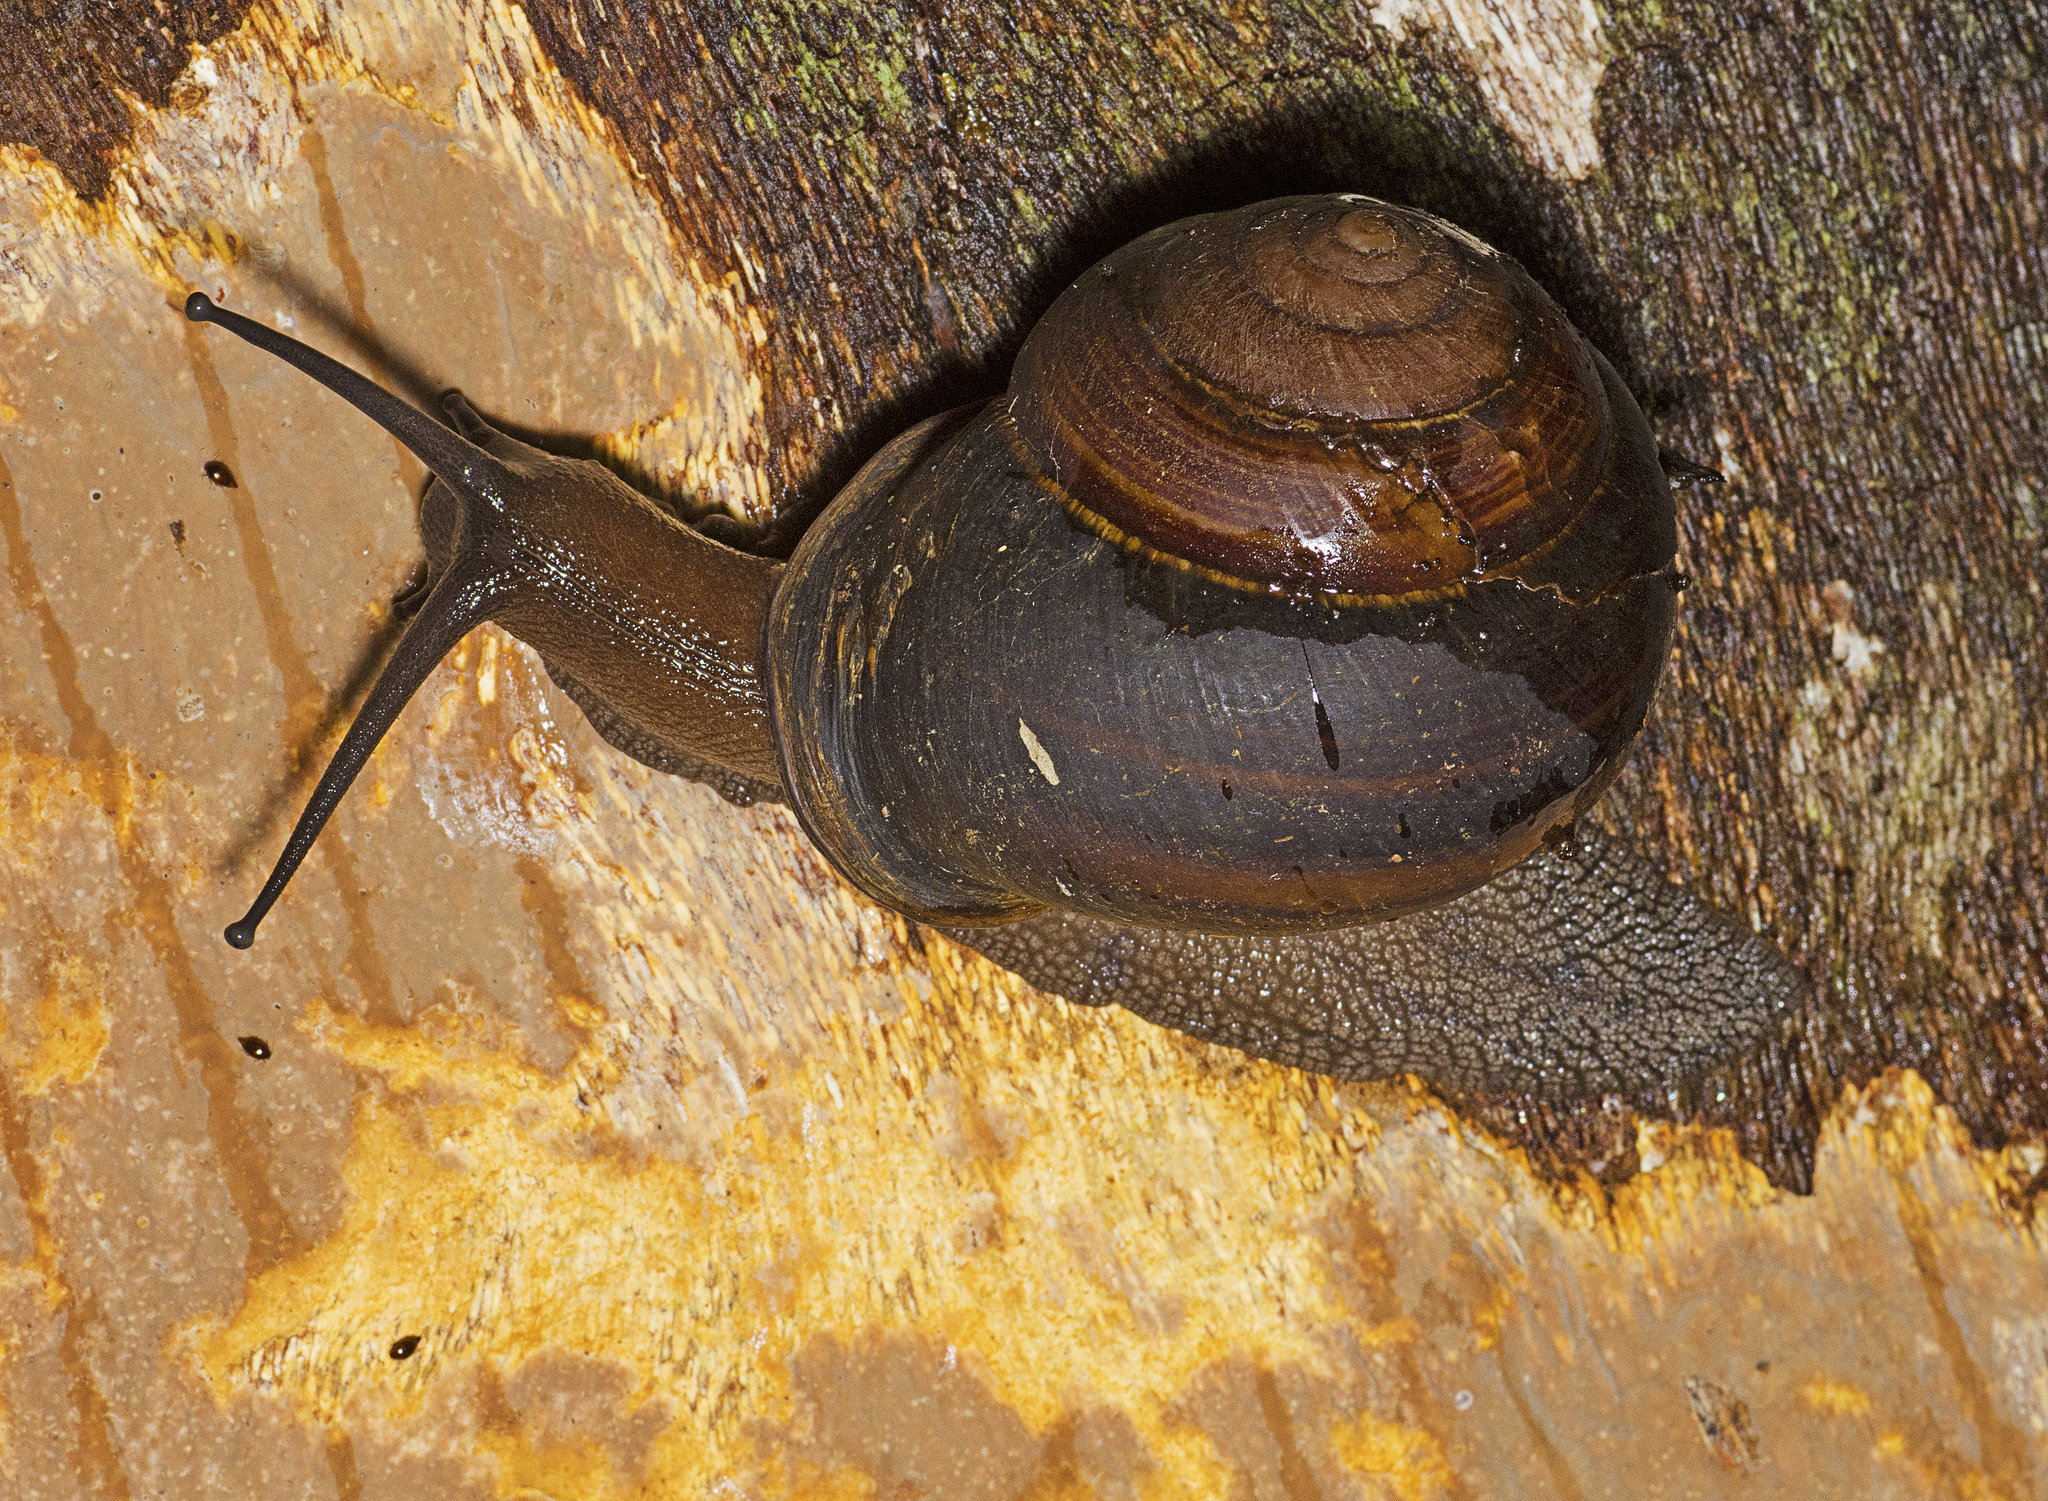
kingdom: Animalia
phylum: Mollusca
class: Gastropoda
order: Stylommatophora
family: Camaenidae
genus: Sphaerospira
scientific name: Sphaerospira fraseri
